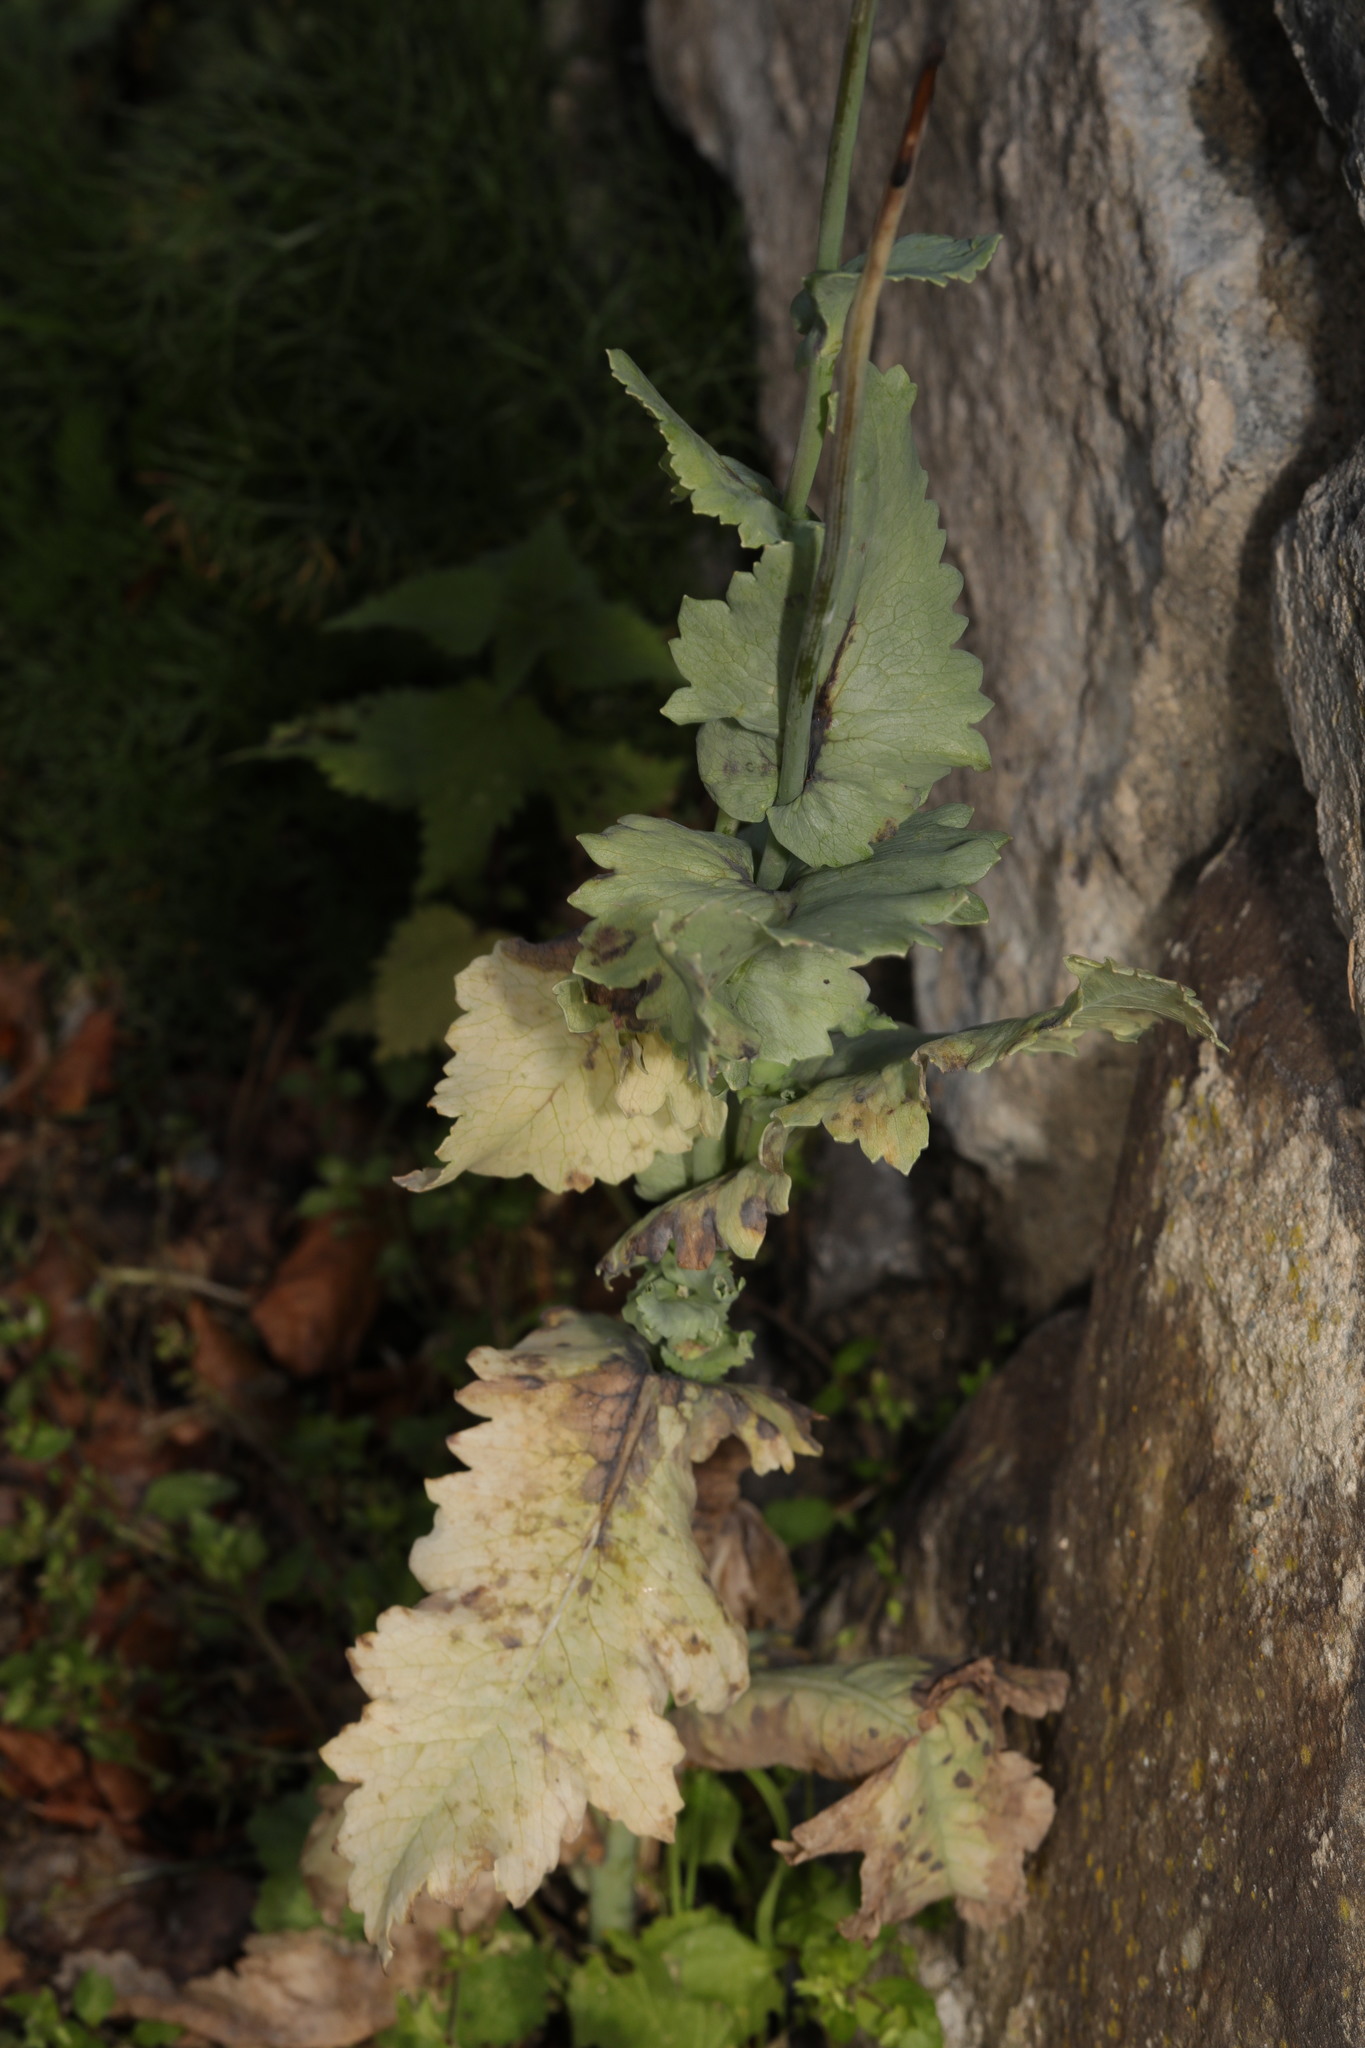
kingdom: Plantae
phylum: Tracheophyta
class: Magnoliopsida
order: Ranunculales
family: Papaveraceae
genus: Papaver
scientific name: Papaver somniferum
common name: Opium poppy
